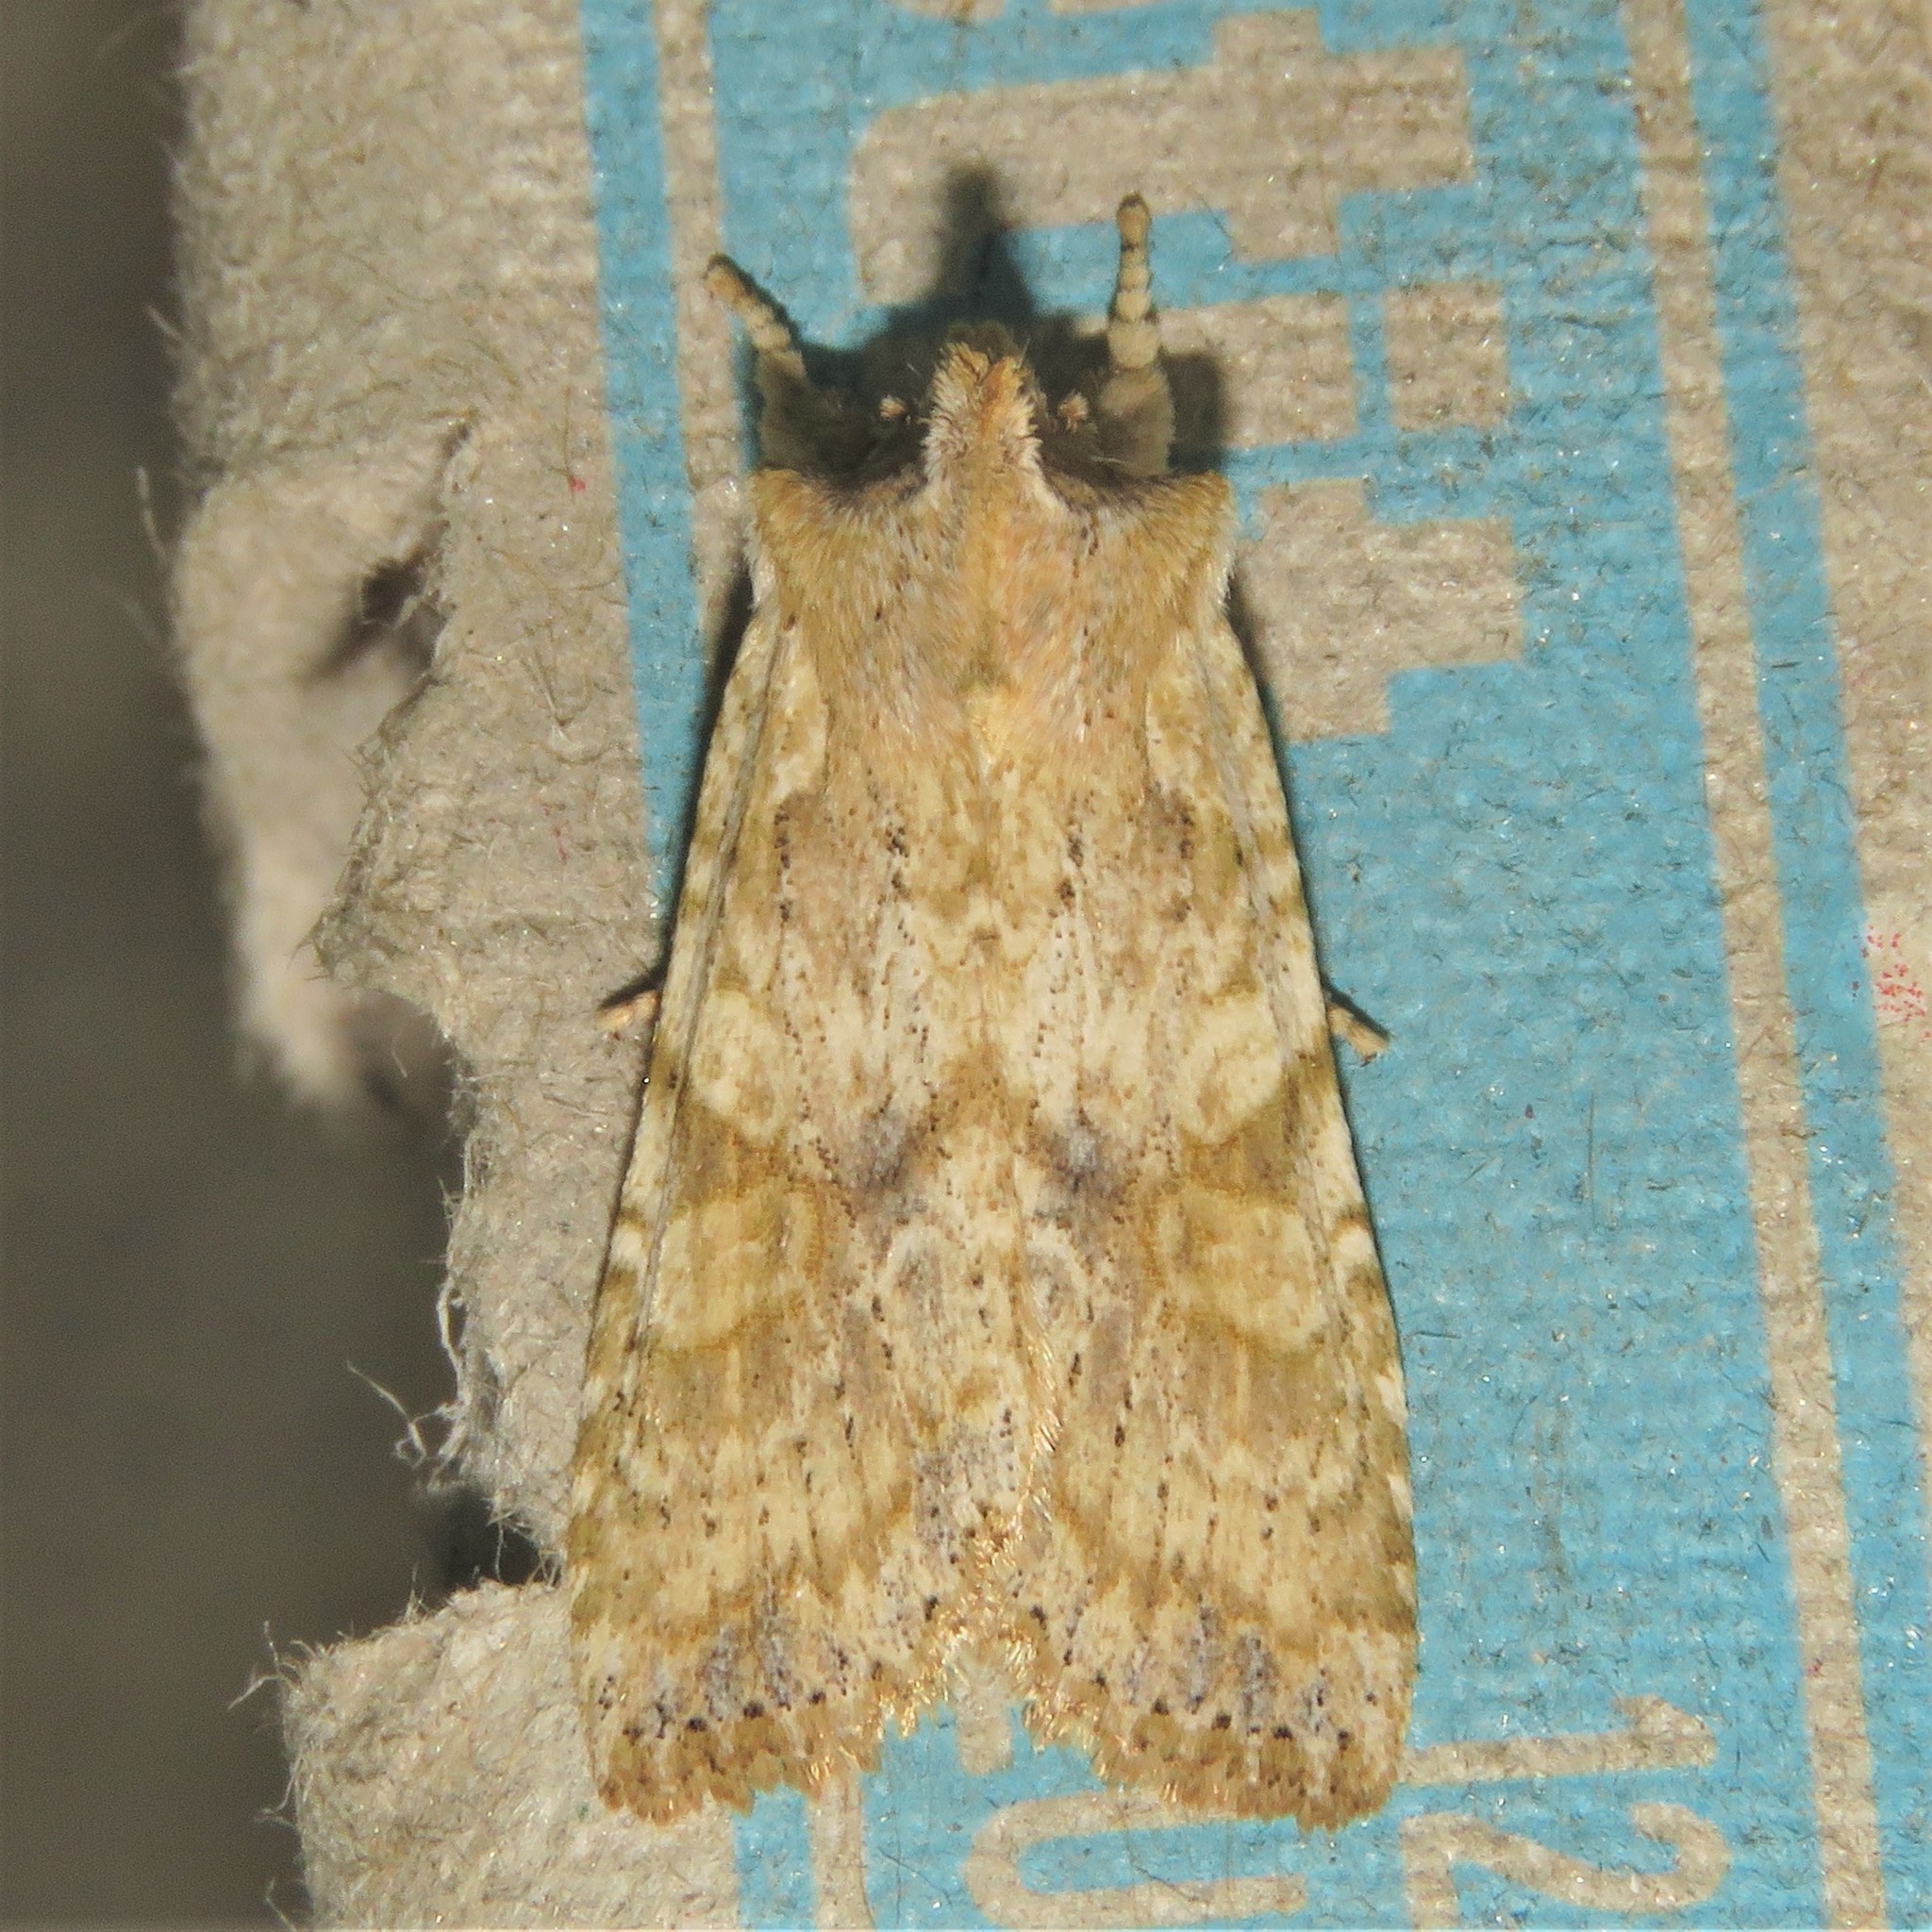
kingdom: Animalia
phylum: Arthropoda
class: Insecta
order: Lepidoptera
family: Noctuidae
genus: Lithophane
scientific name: Lithophane bethunei
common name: Bethune's pinion moth
